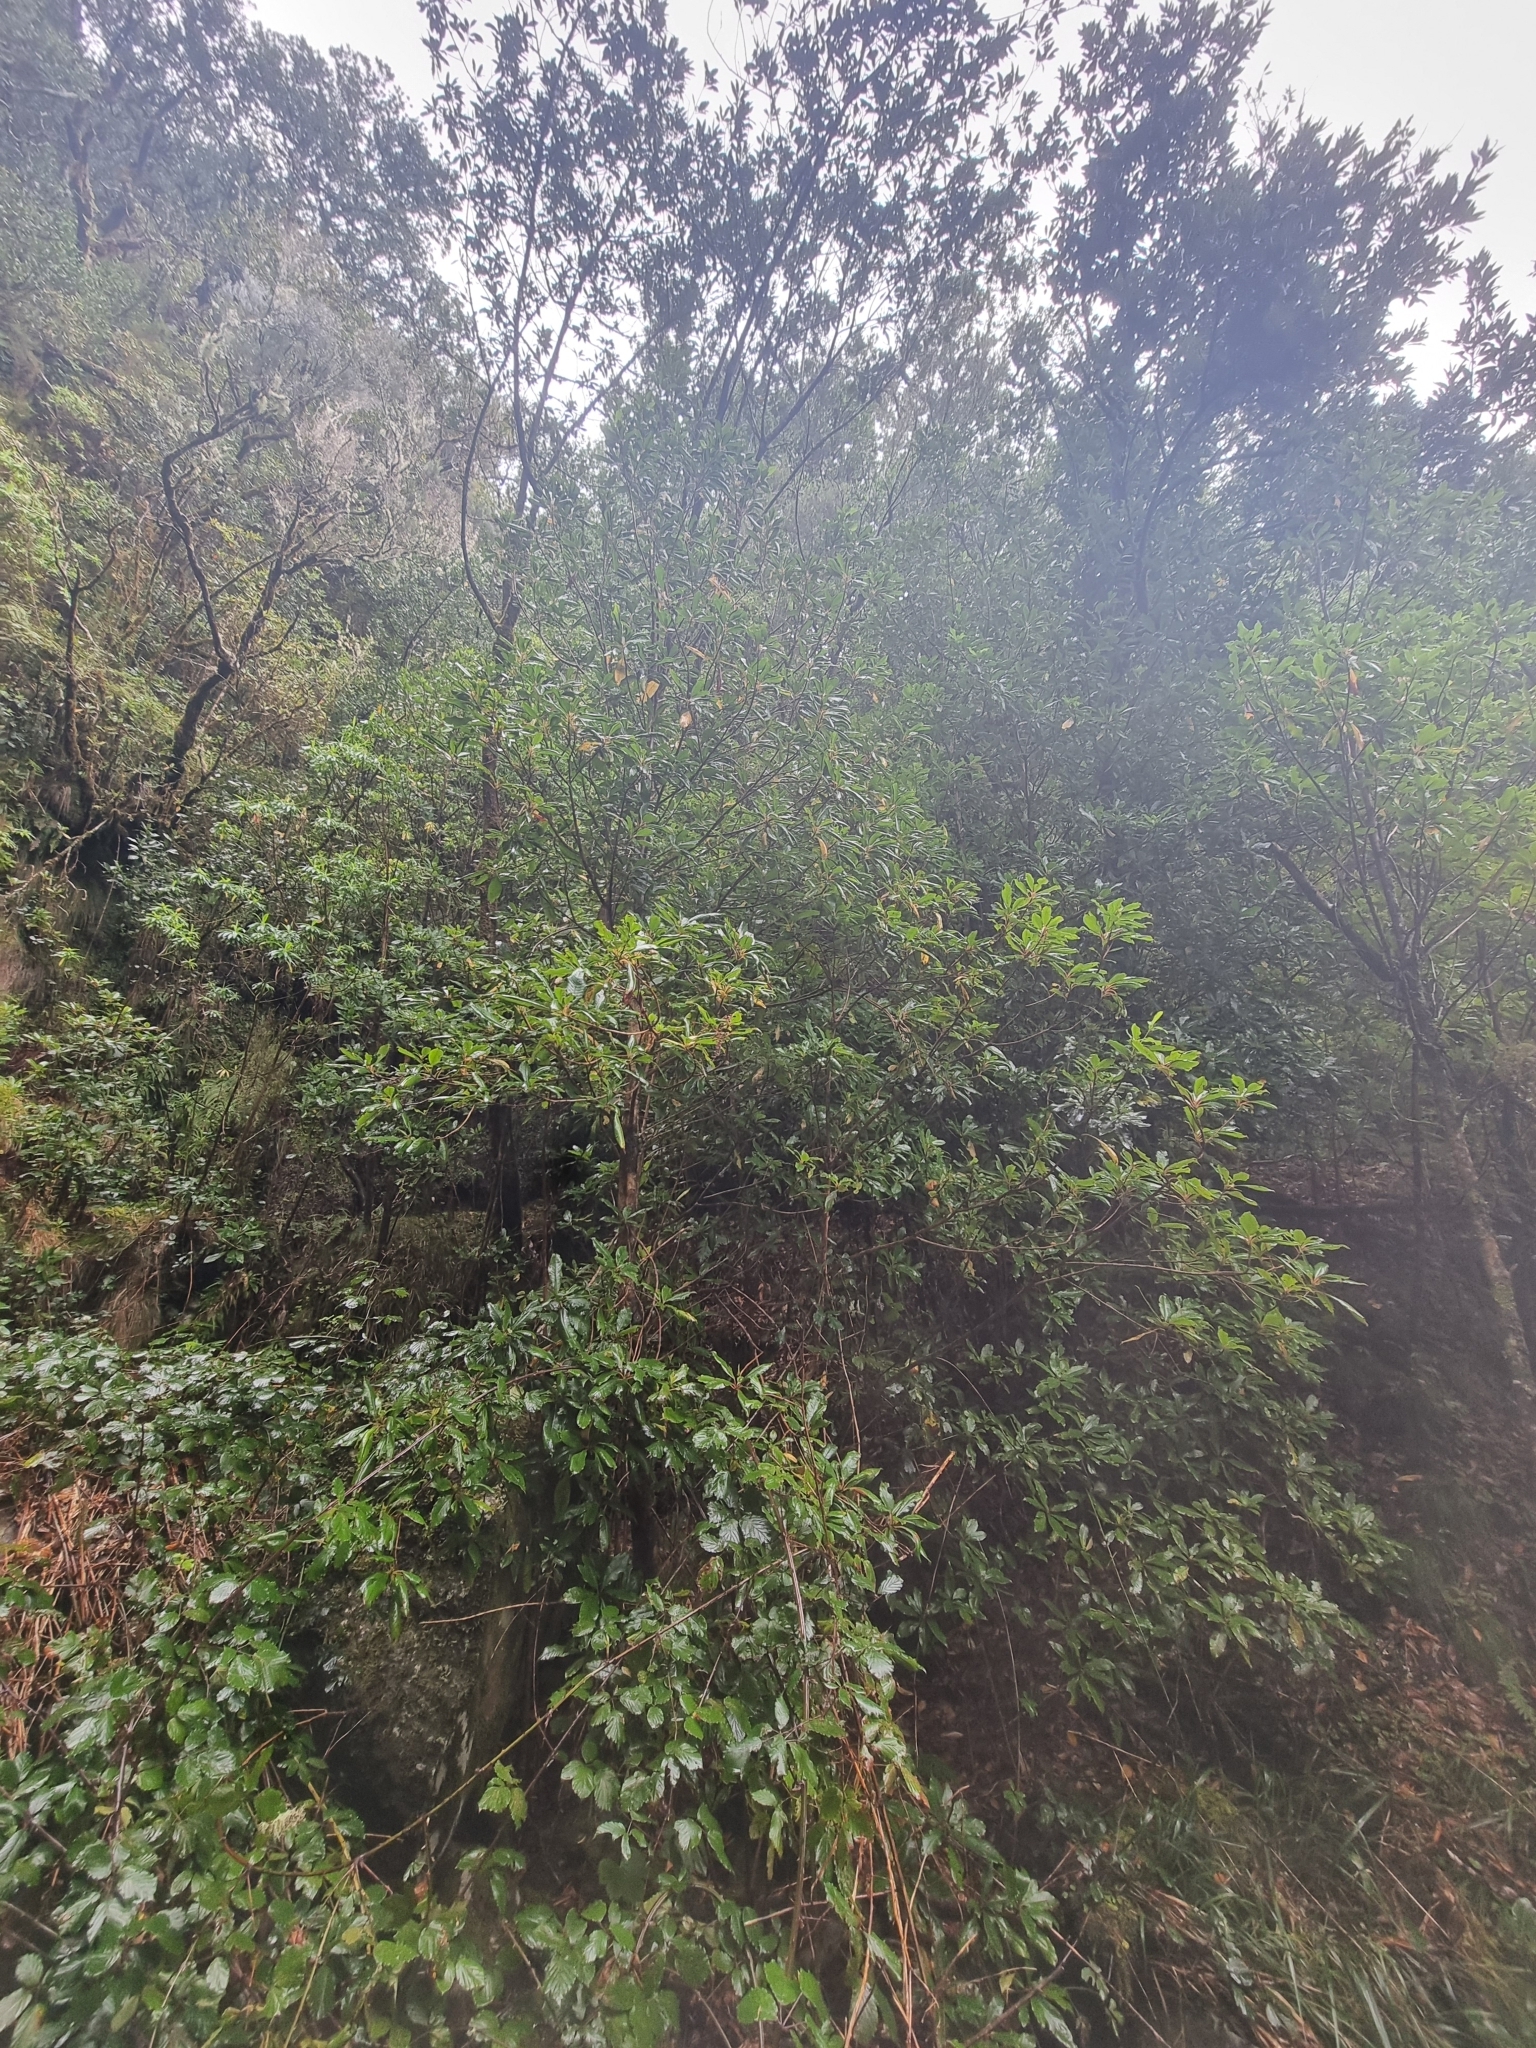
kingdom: Plantae
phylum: Tracheophyta
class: Magnoliopsida
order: Ericales
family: Clethraceae
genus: Clethra
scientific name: Clethra arborea
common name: Lily-of-the-valley-tree
